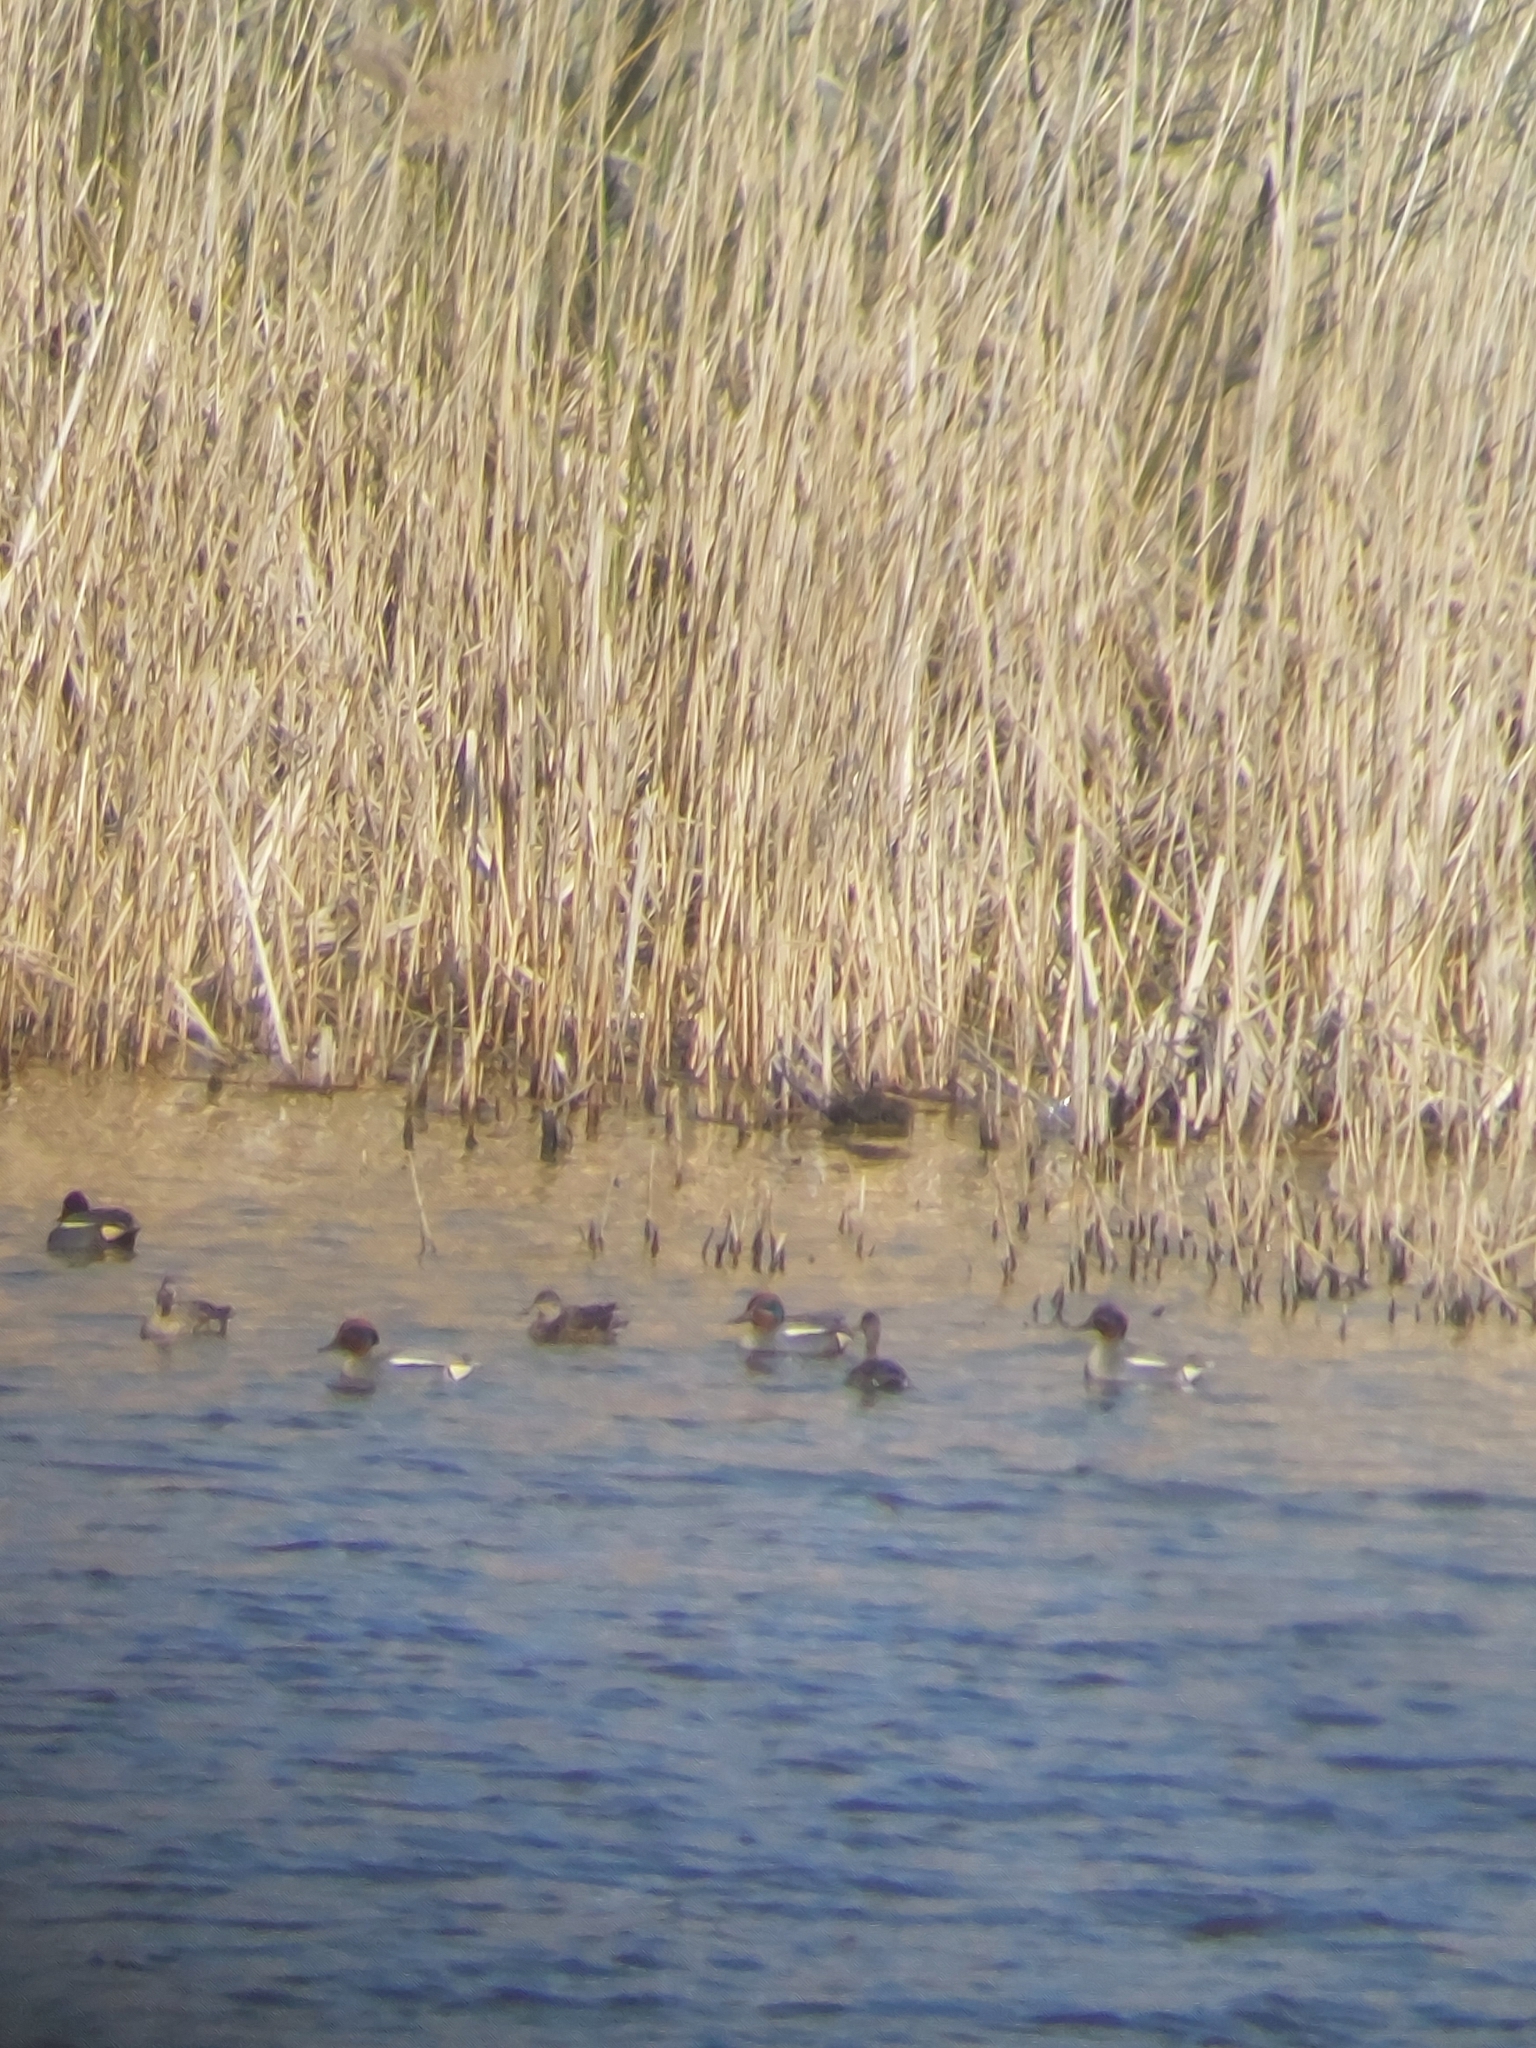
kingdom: Animalia
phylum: Chordata
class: Aves
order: Anseriformes
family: Anatidae
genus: Anas
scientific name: Anas crecca
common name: Eurasian teal
